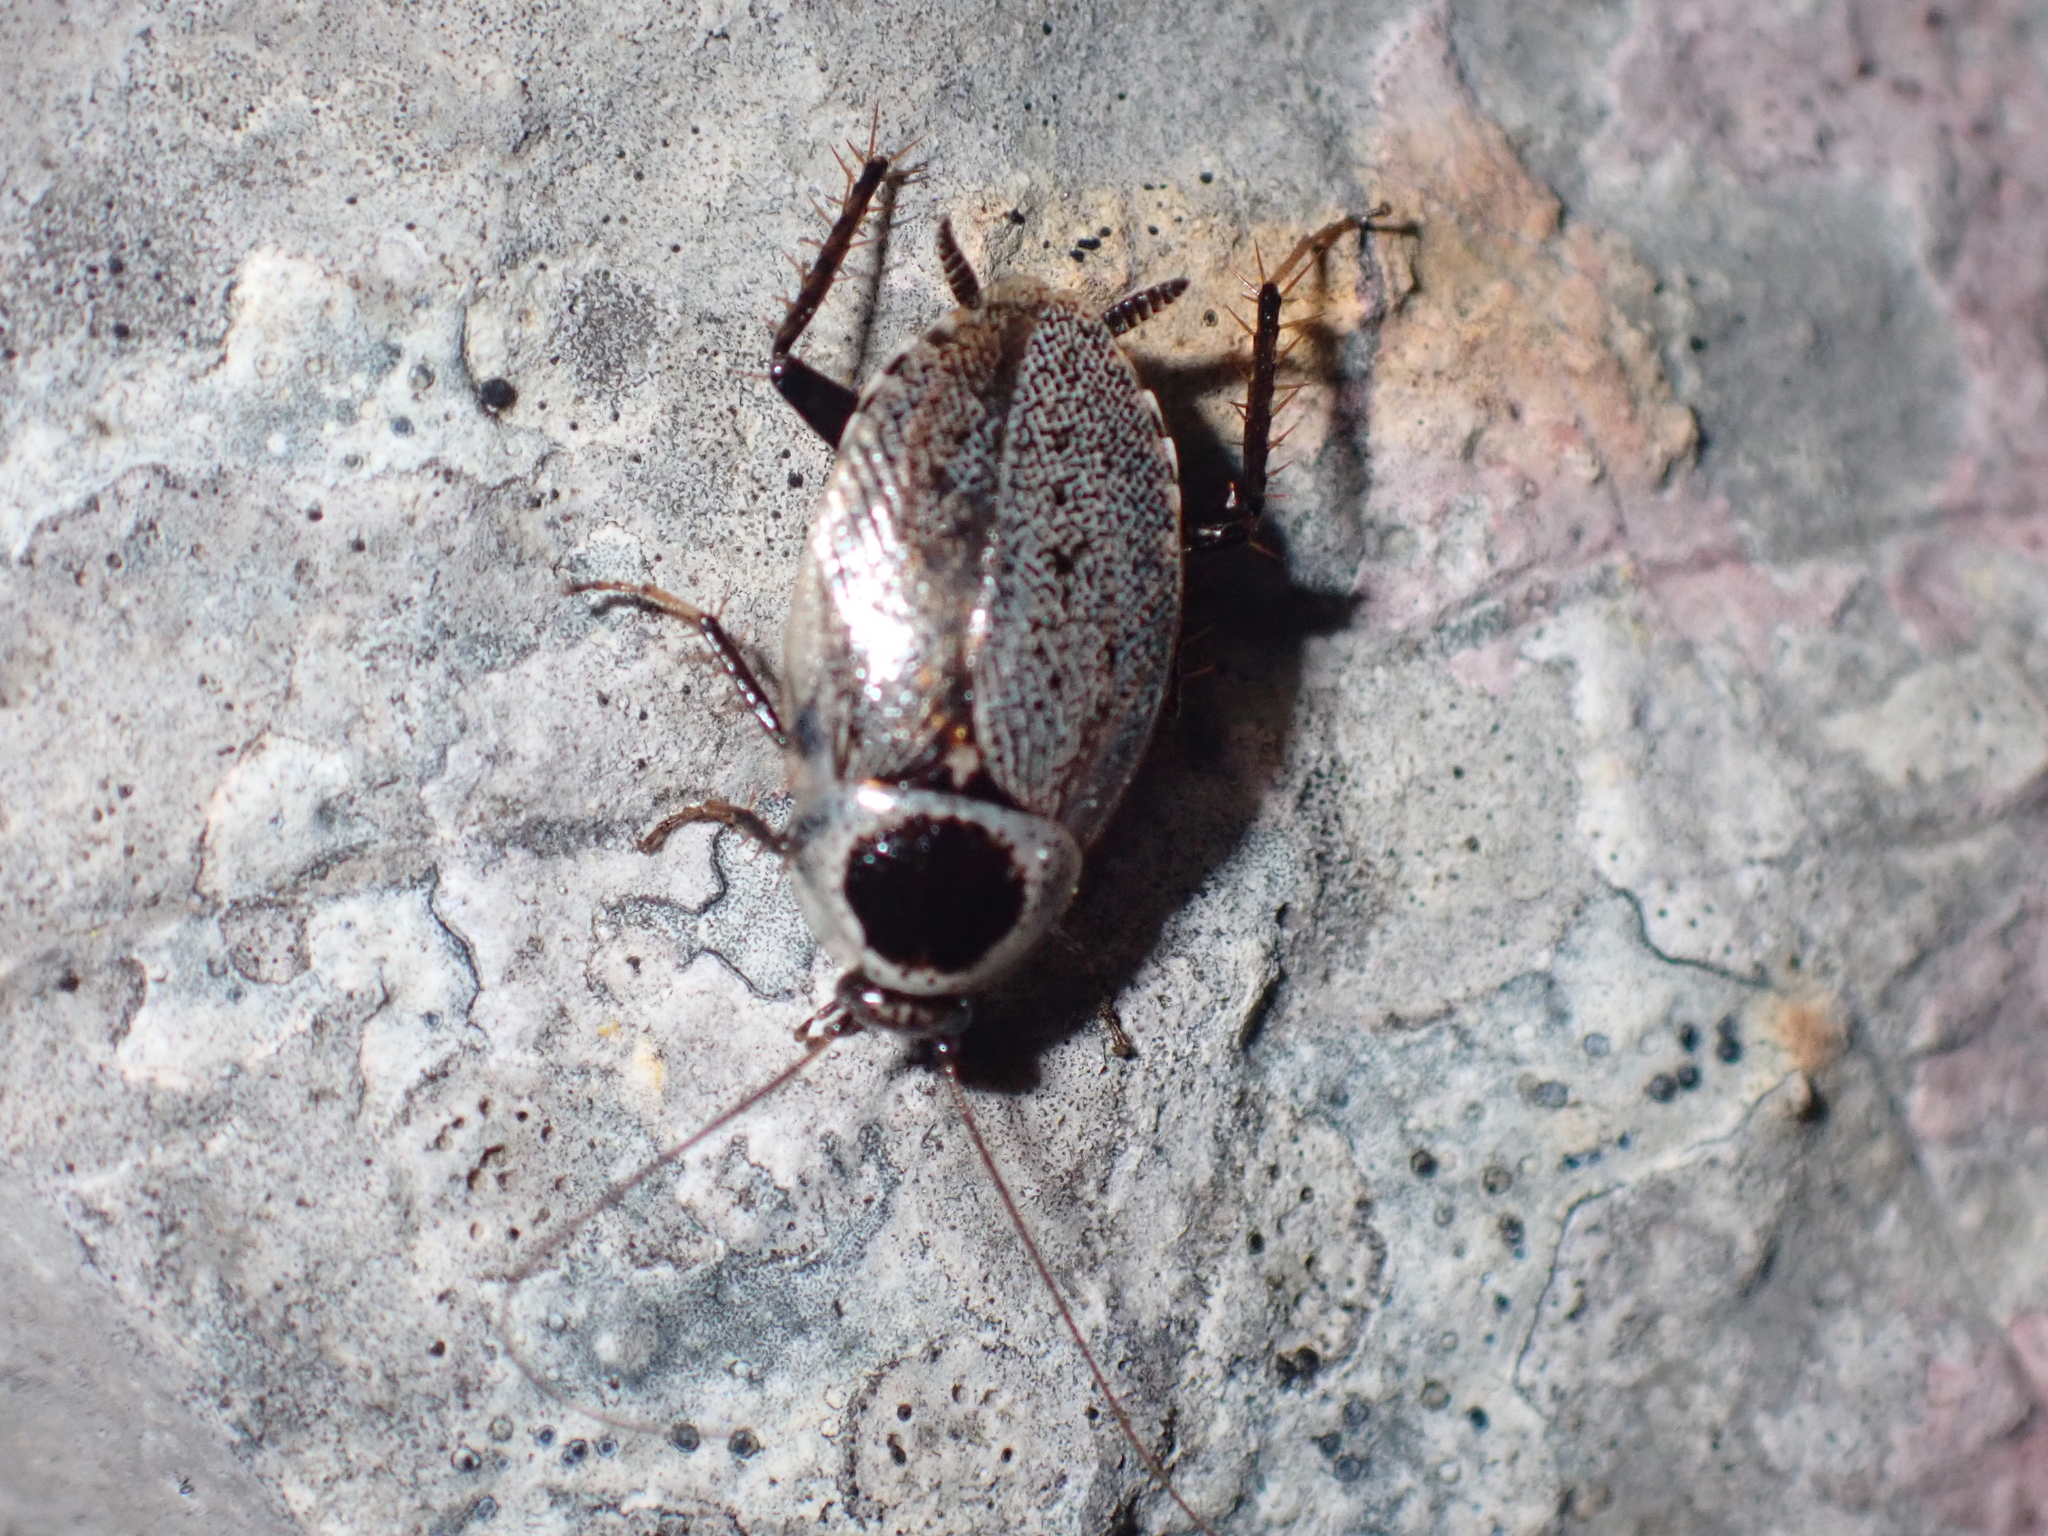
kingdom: Animalia
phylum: Arthropoda
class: Insecta
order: Blattodea
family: Ectobiidae
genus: Planuncus
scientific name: Planuncus nicaeensis
